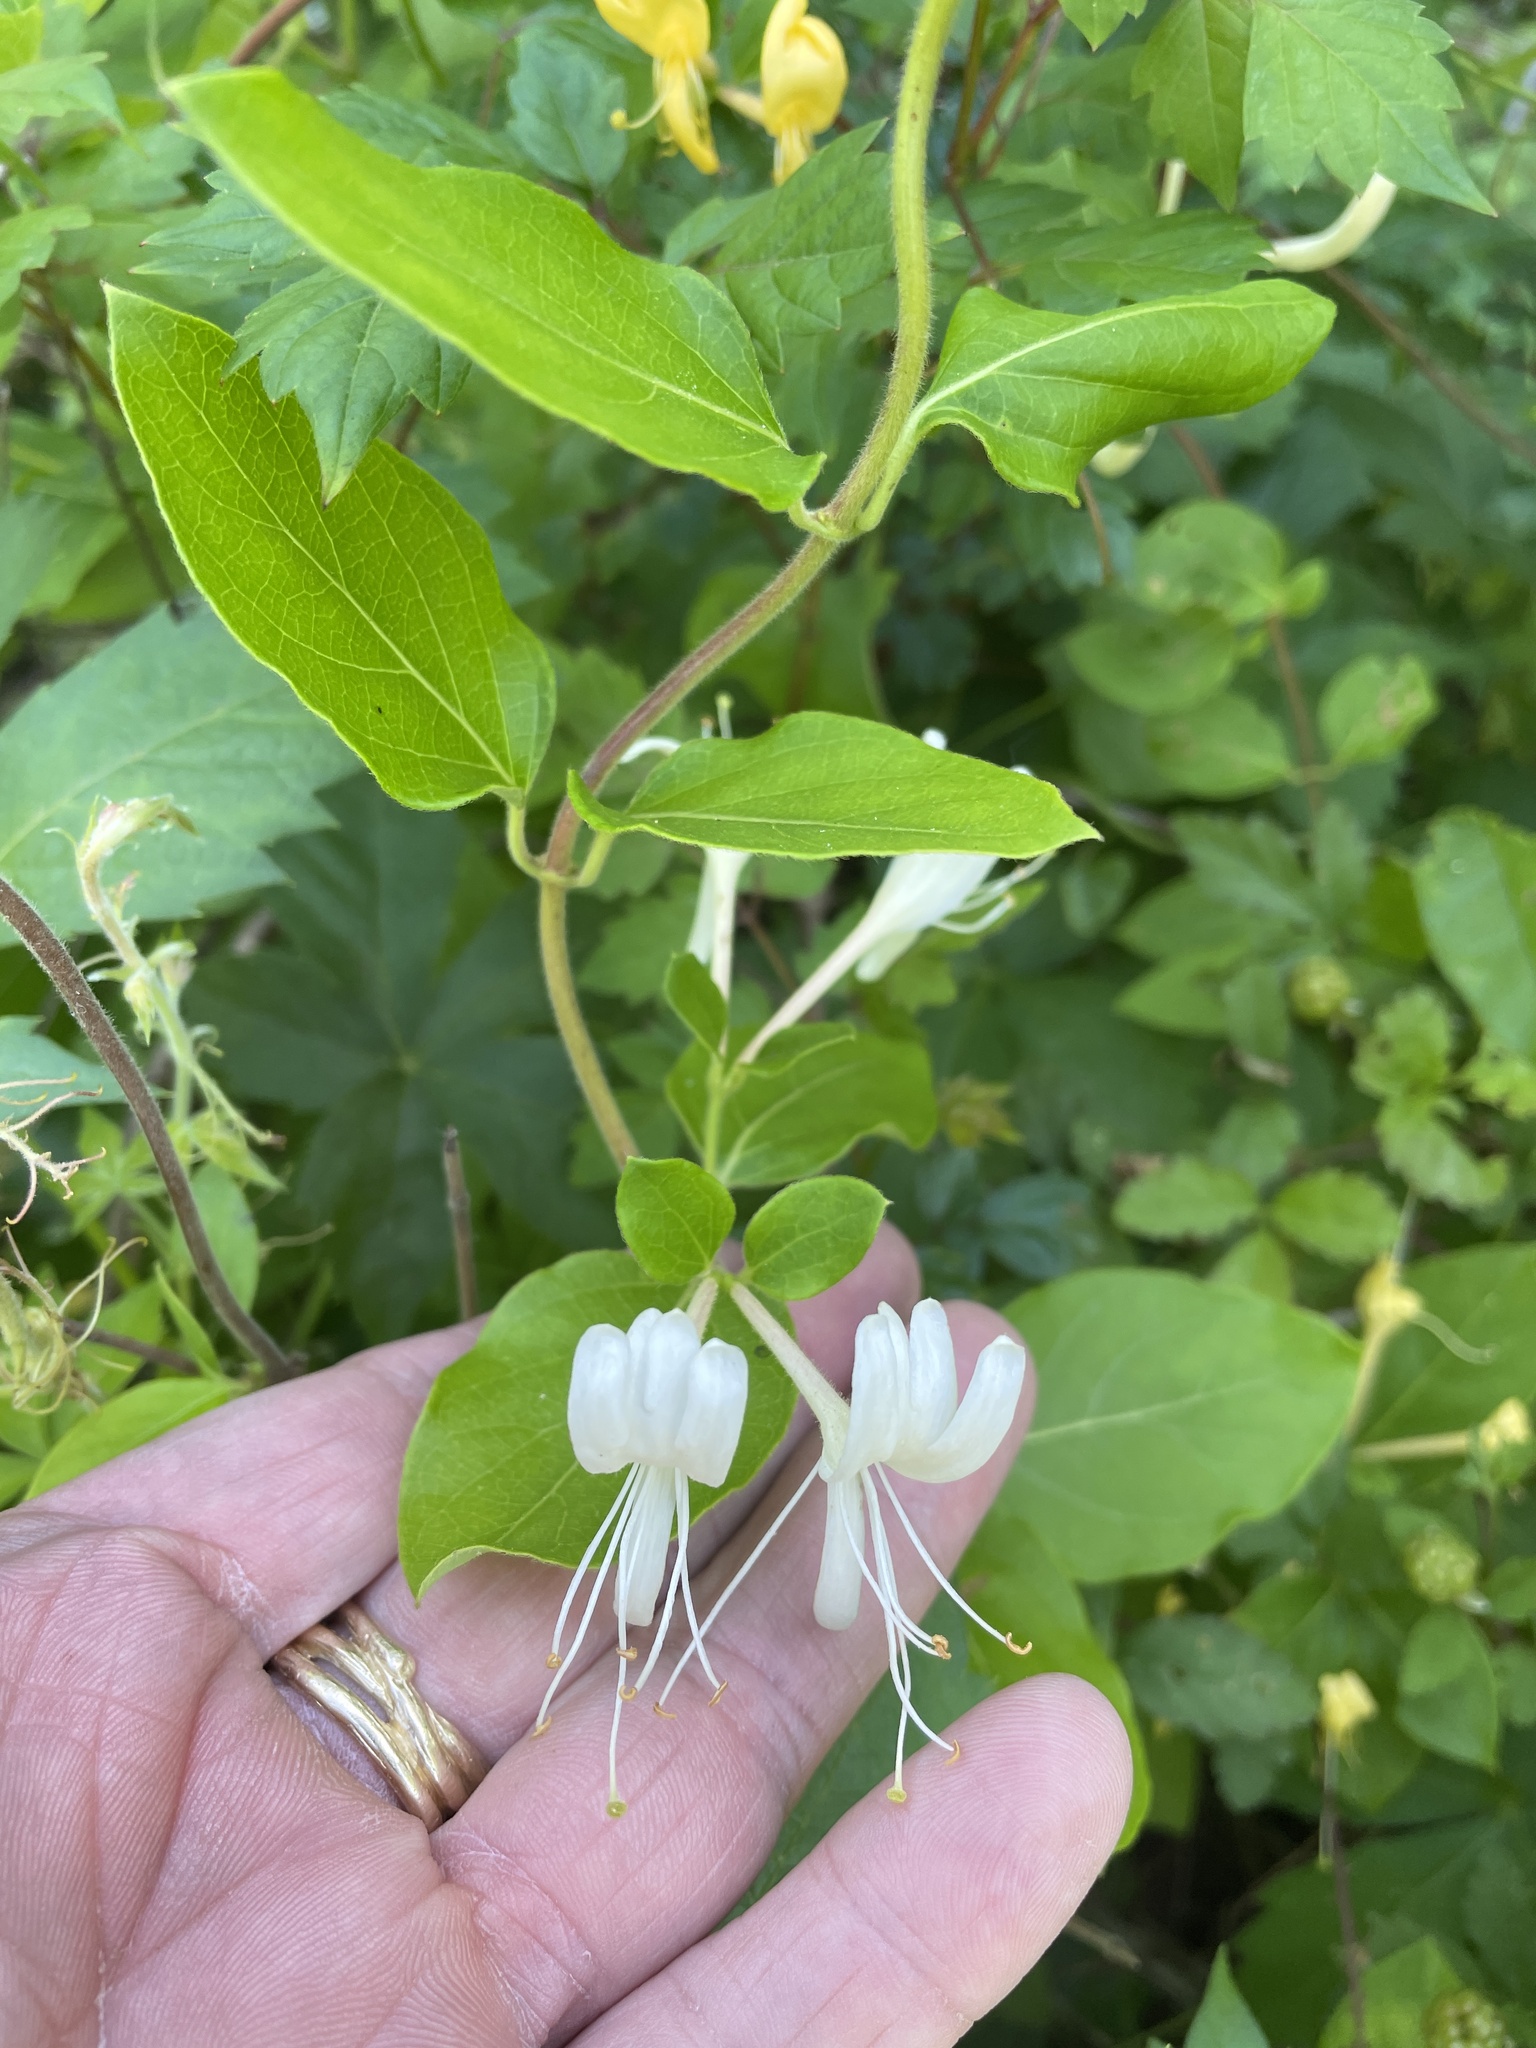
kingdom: Plantae
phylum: Tracheophyta
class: Magnoliopsida
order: Dipsacales
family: Caprifoliaceae
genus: Lonicera
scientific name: Lonicera japonica
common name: Japanese honeysuckle
